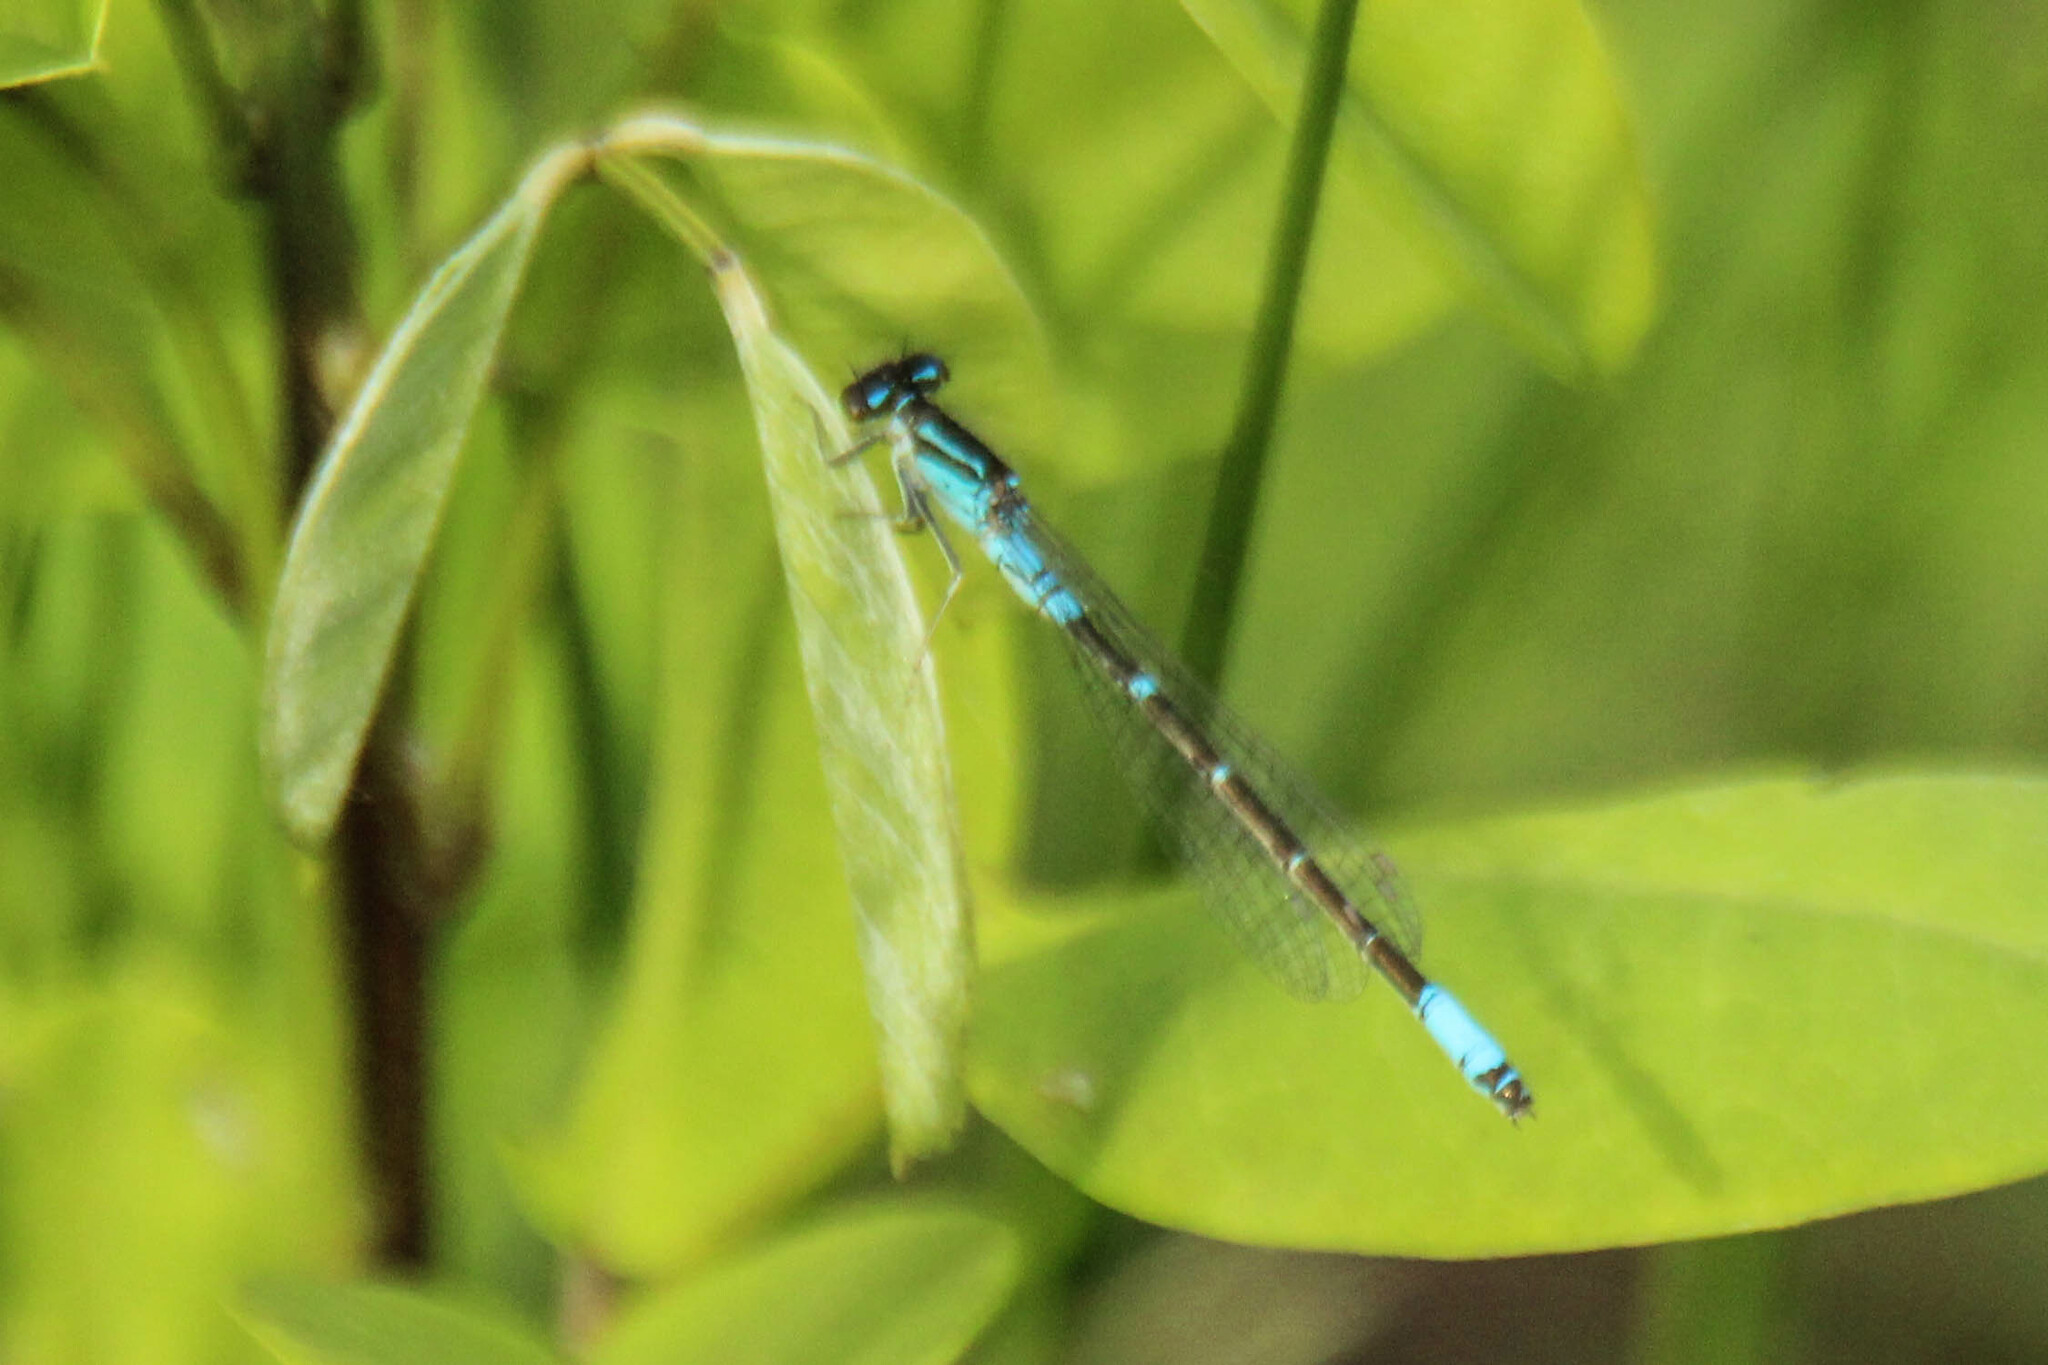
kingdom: Animalia
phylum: Arthropoda
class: Insecta
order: Odonata
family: Coenagrionidae
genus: Coenagrion
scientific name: Coenagrion glaciale
